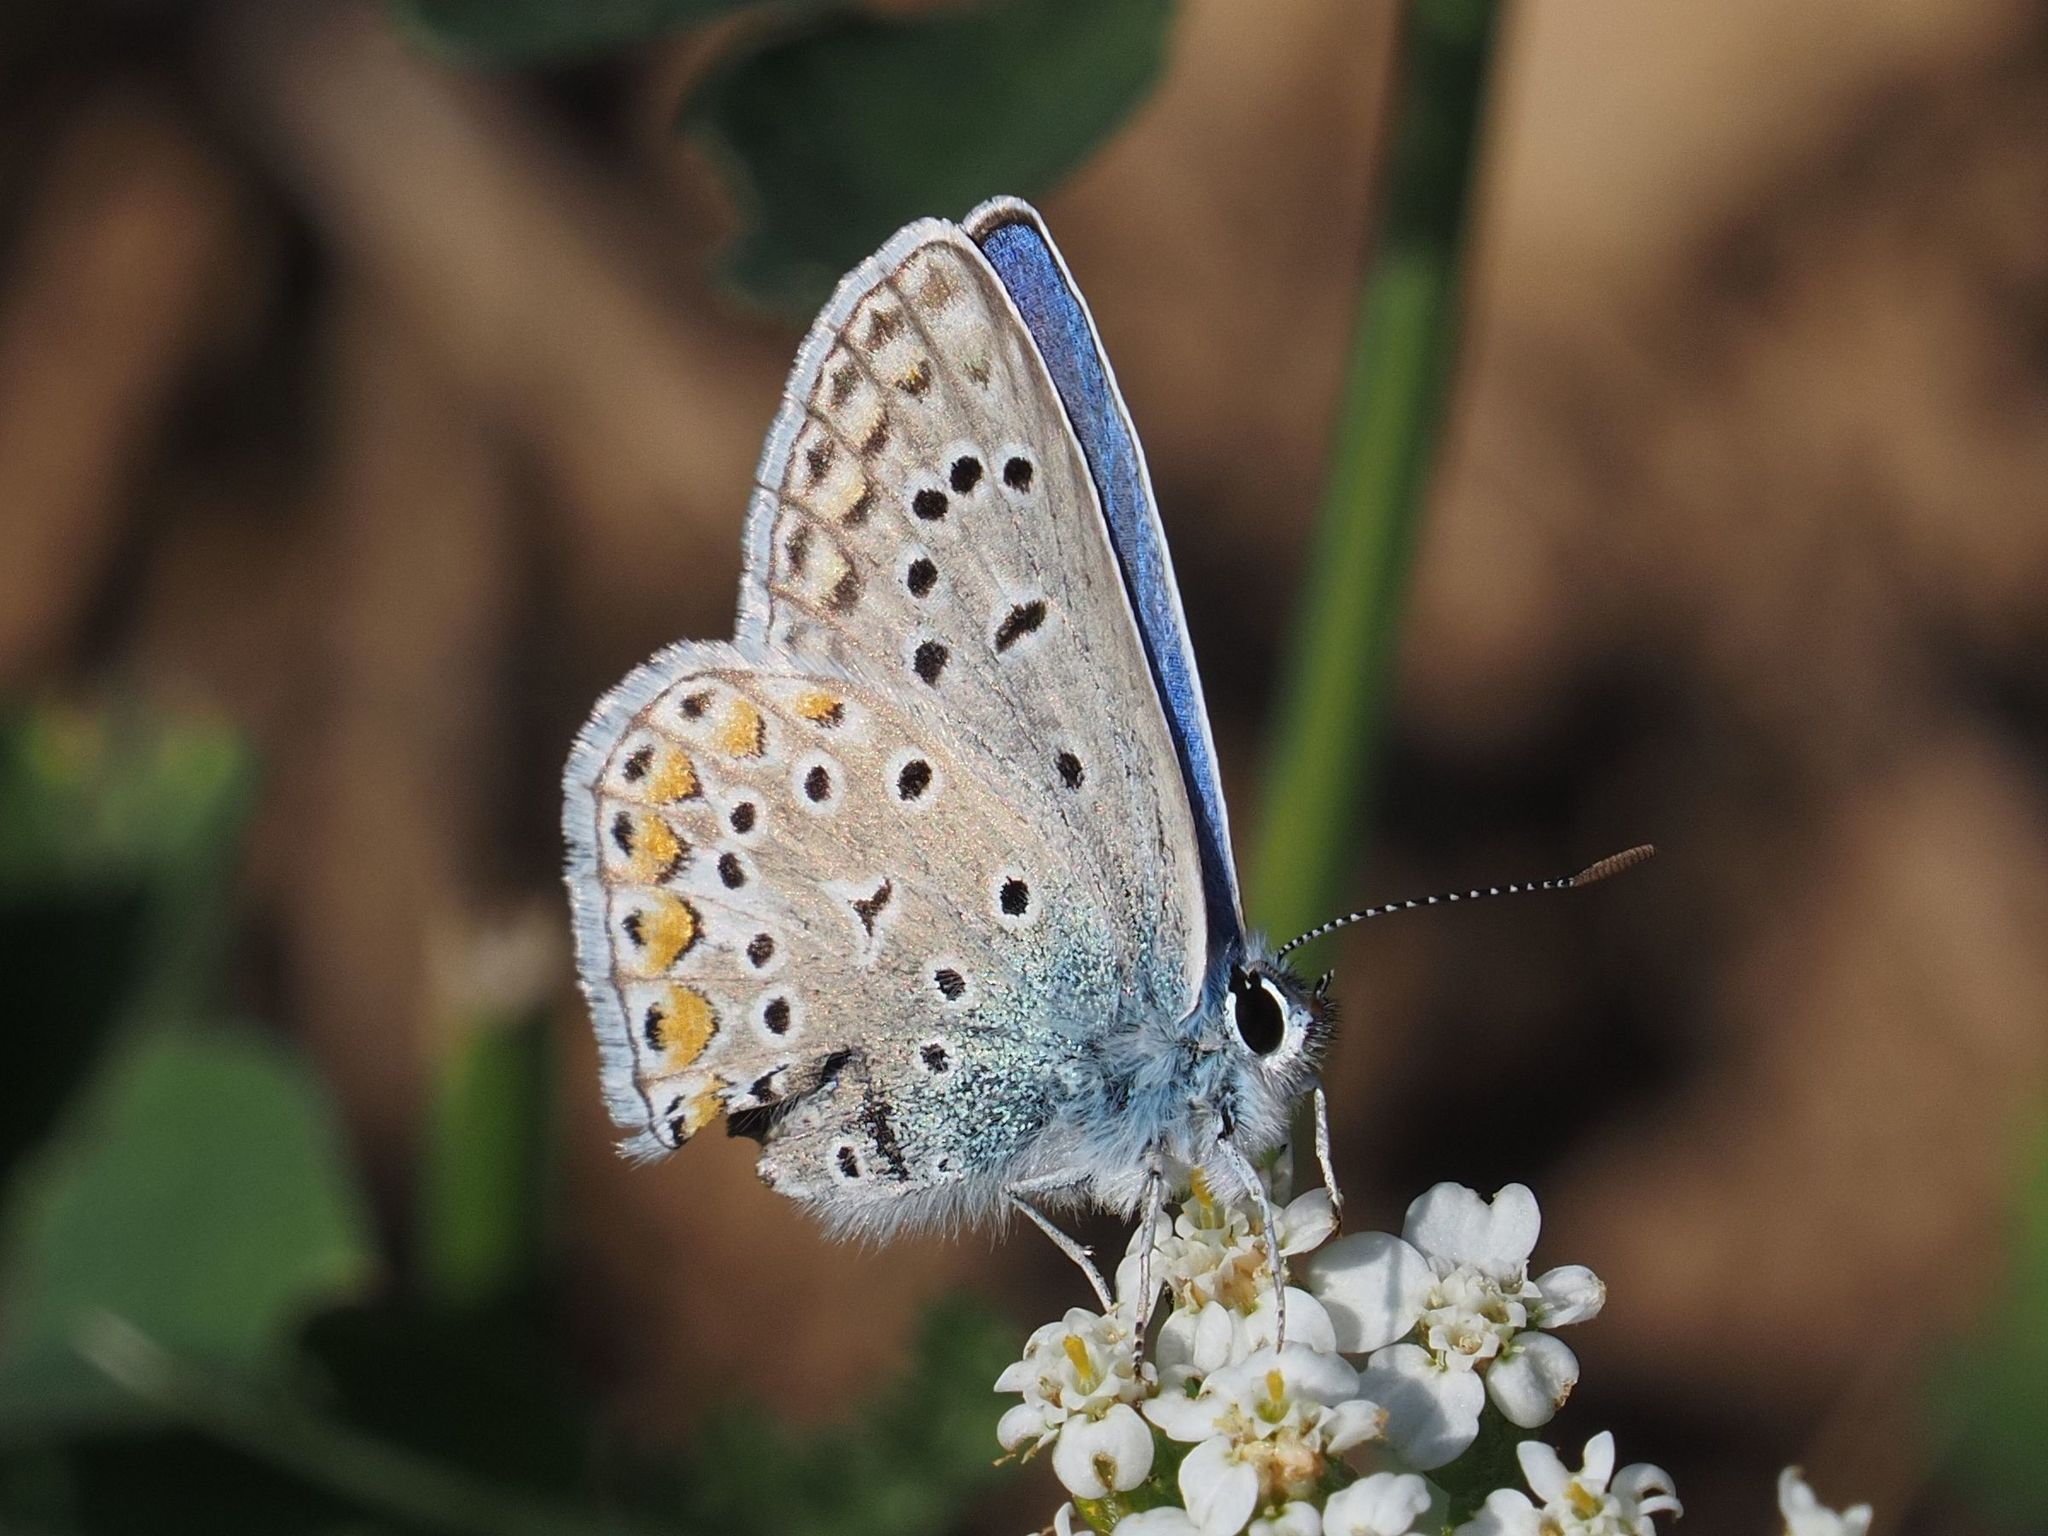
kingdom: Animalia
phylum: Arthropoda
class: Insecta
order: Lepidoptera
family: Lycaenidae
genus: Polyommatus
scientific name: Polyommatus icarus
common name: Common blue
